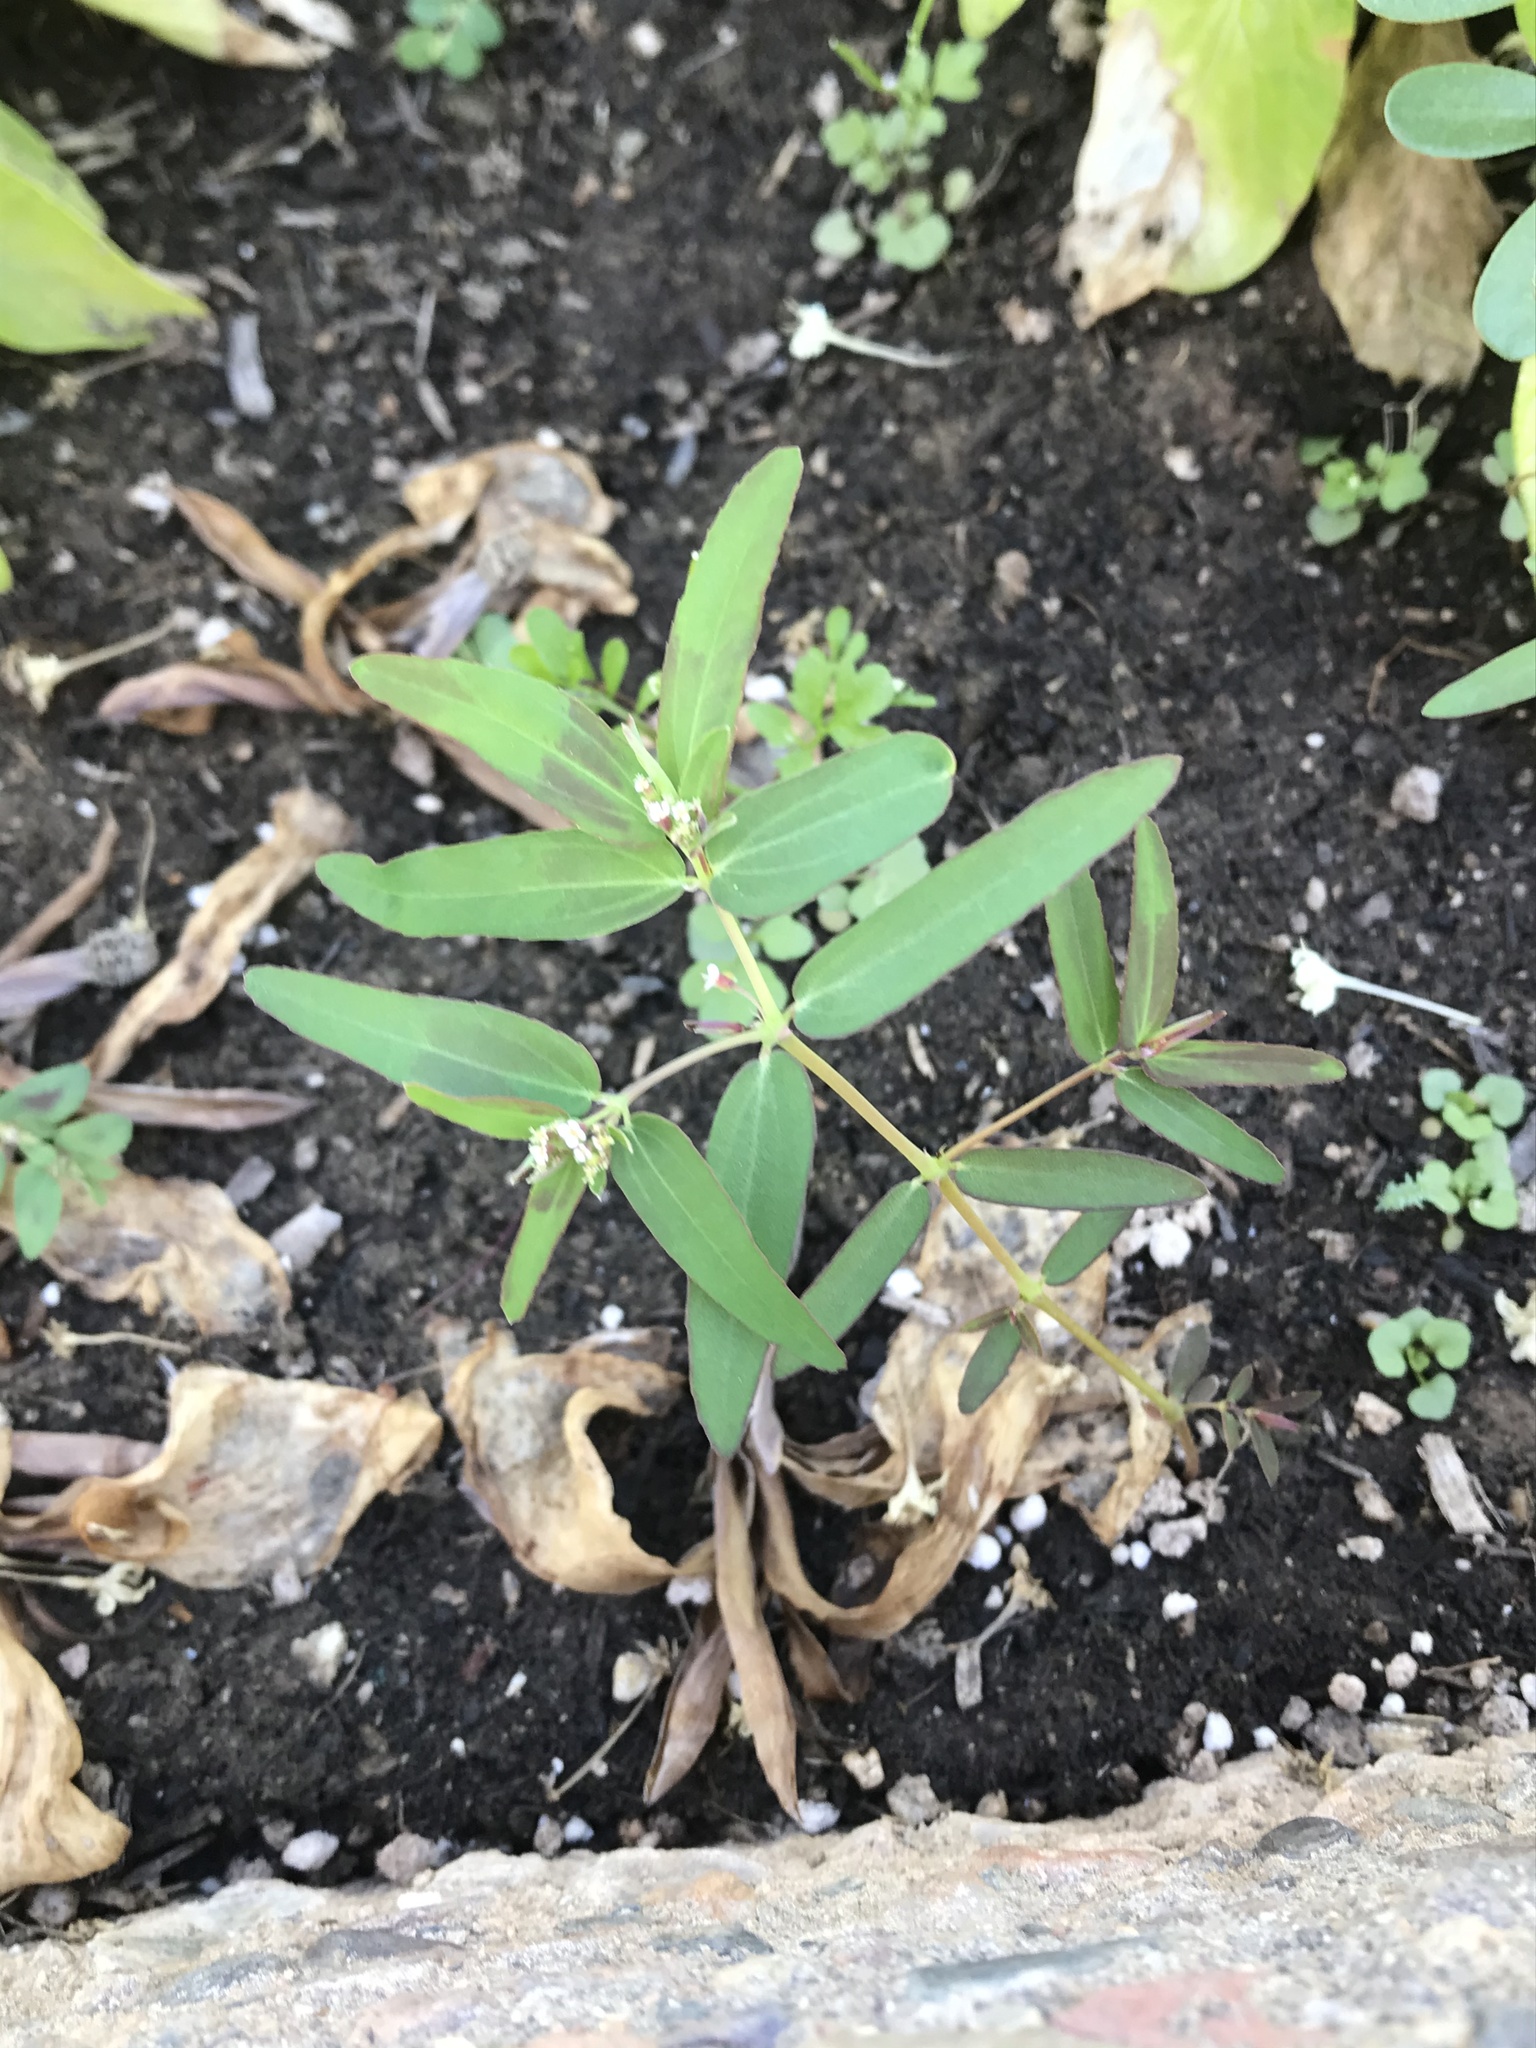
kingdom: Plantae
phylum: Tracheophyta
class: Magnoliopsida
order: Malpighiales
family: Euphorbiaceae
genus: Euphorbia
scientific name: Euphorbia hypericifolia
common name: Graceful sandmat
